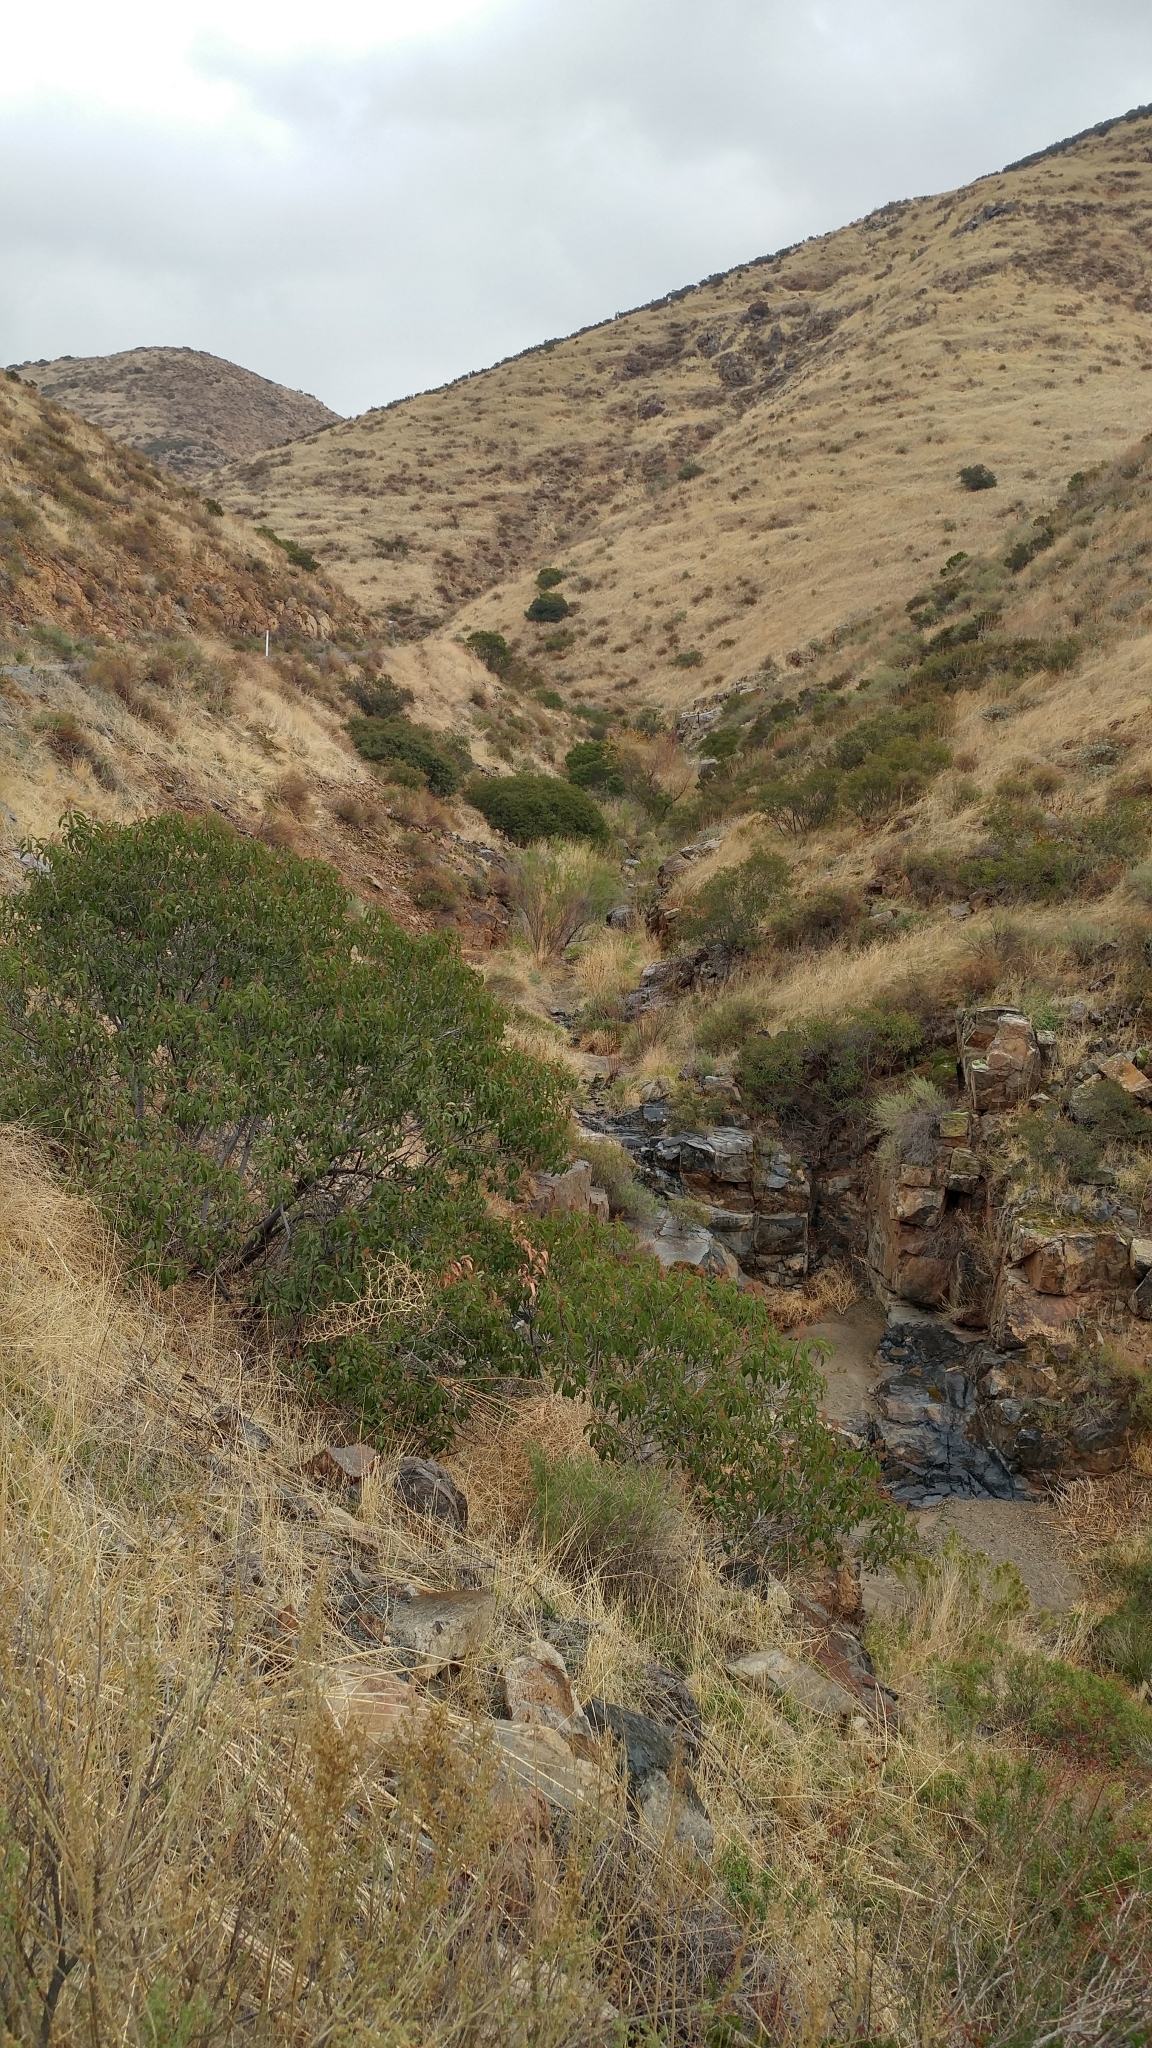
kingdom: Plantae
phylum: Tracheophyta
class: Magnoliopsida
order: Sapindales
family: Anacardiaceae
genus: Malosma
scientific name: Malosma laurina
